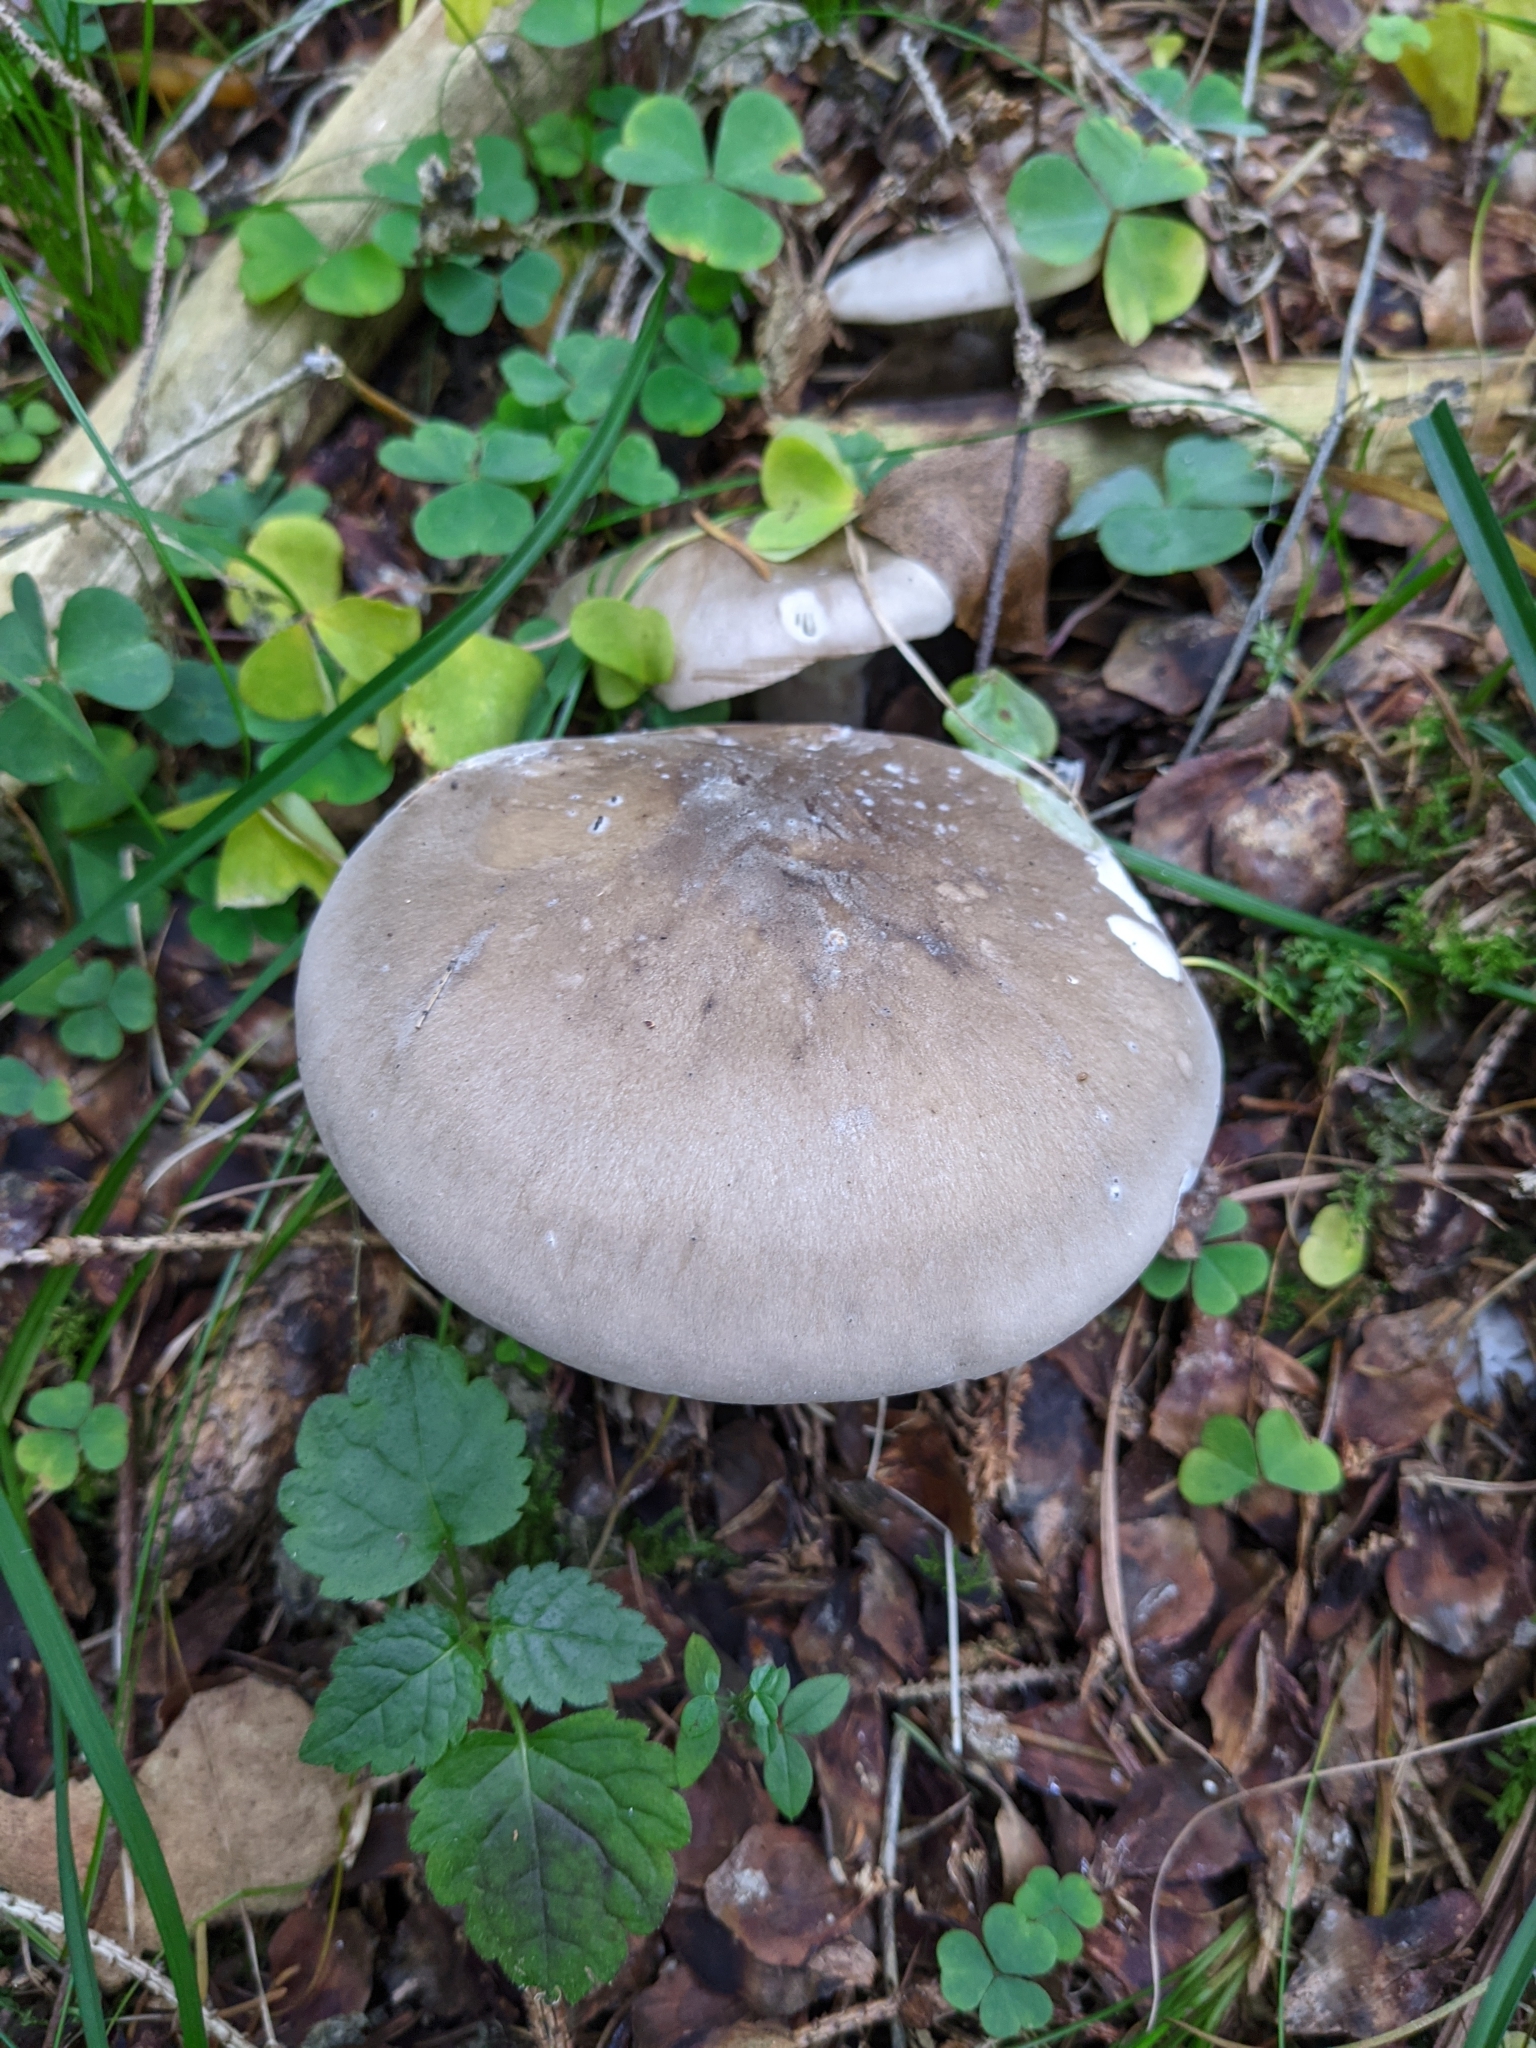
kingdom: Fungi
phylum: Basidiomycota
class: Agaricomycetes
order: Agaricales
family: Tricholomataceae
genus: Clitocybe
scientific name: Clitocybe nebularis
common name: Clouded agaric
